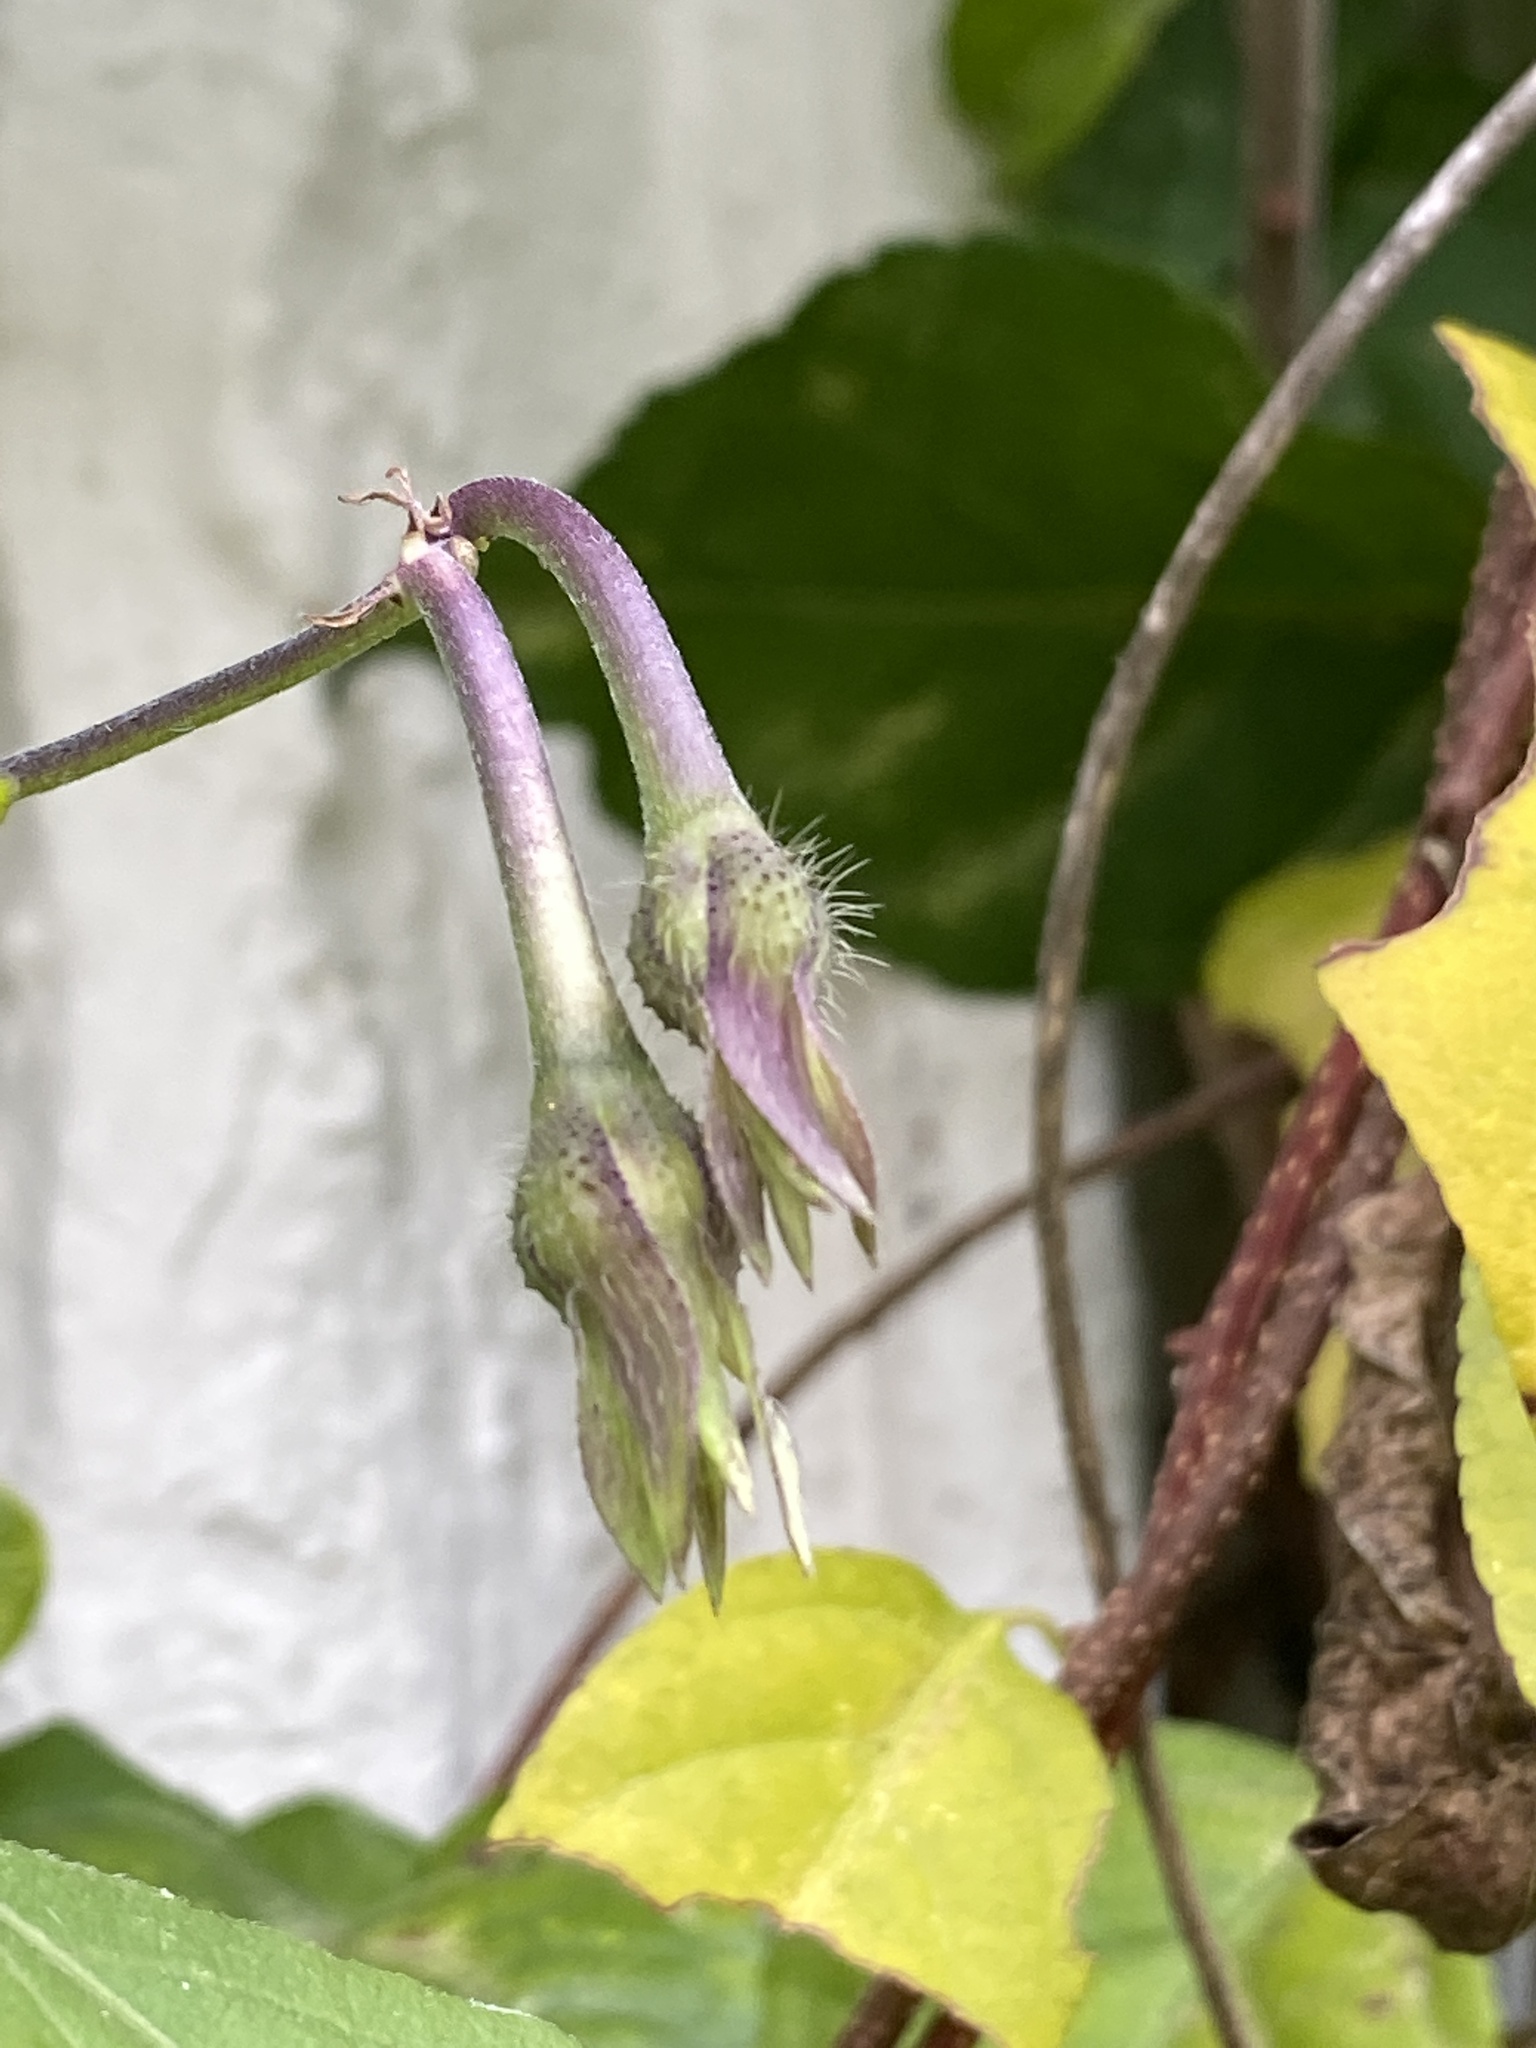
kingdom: Plantae
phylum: Tracheophyta
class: Magnoliopsida
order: Solanales
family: Convolvulaceae
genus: Ipomoea
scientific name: Ipomoea purpurea
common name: Common morning-glory
